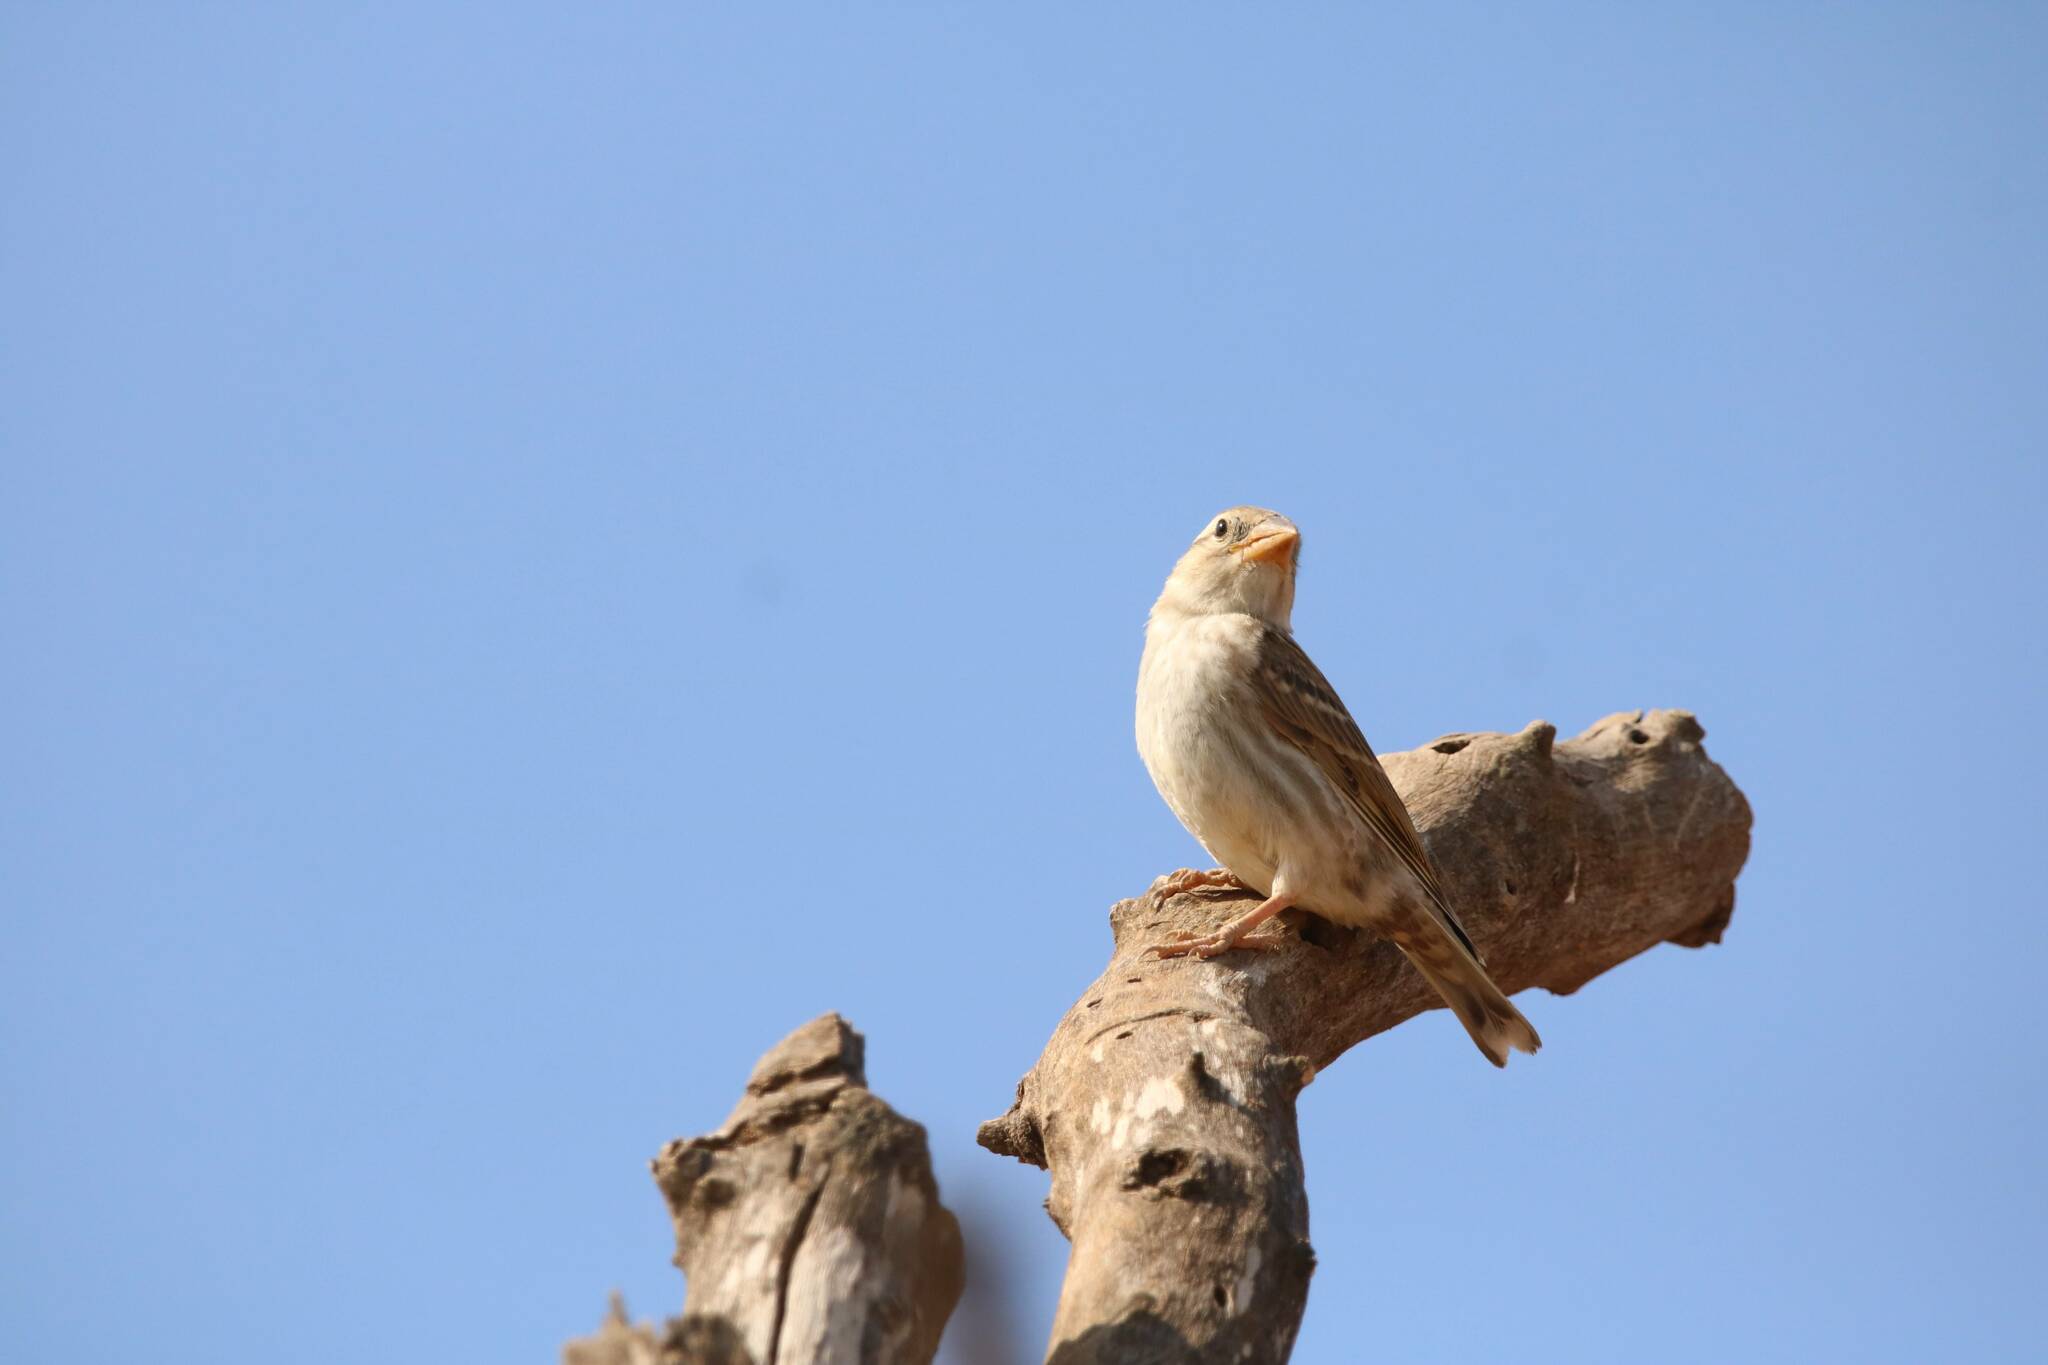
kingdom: Animalia
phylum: Chordata
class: Aves
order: Passeriformes
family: Passeridae
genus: Petronia
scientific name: Petronia petronia
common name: Rock sparrow
